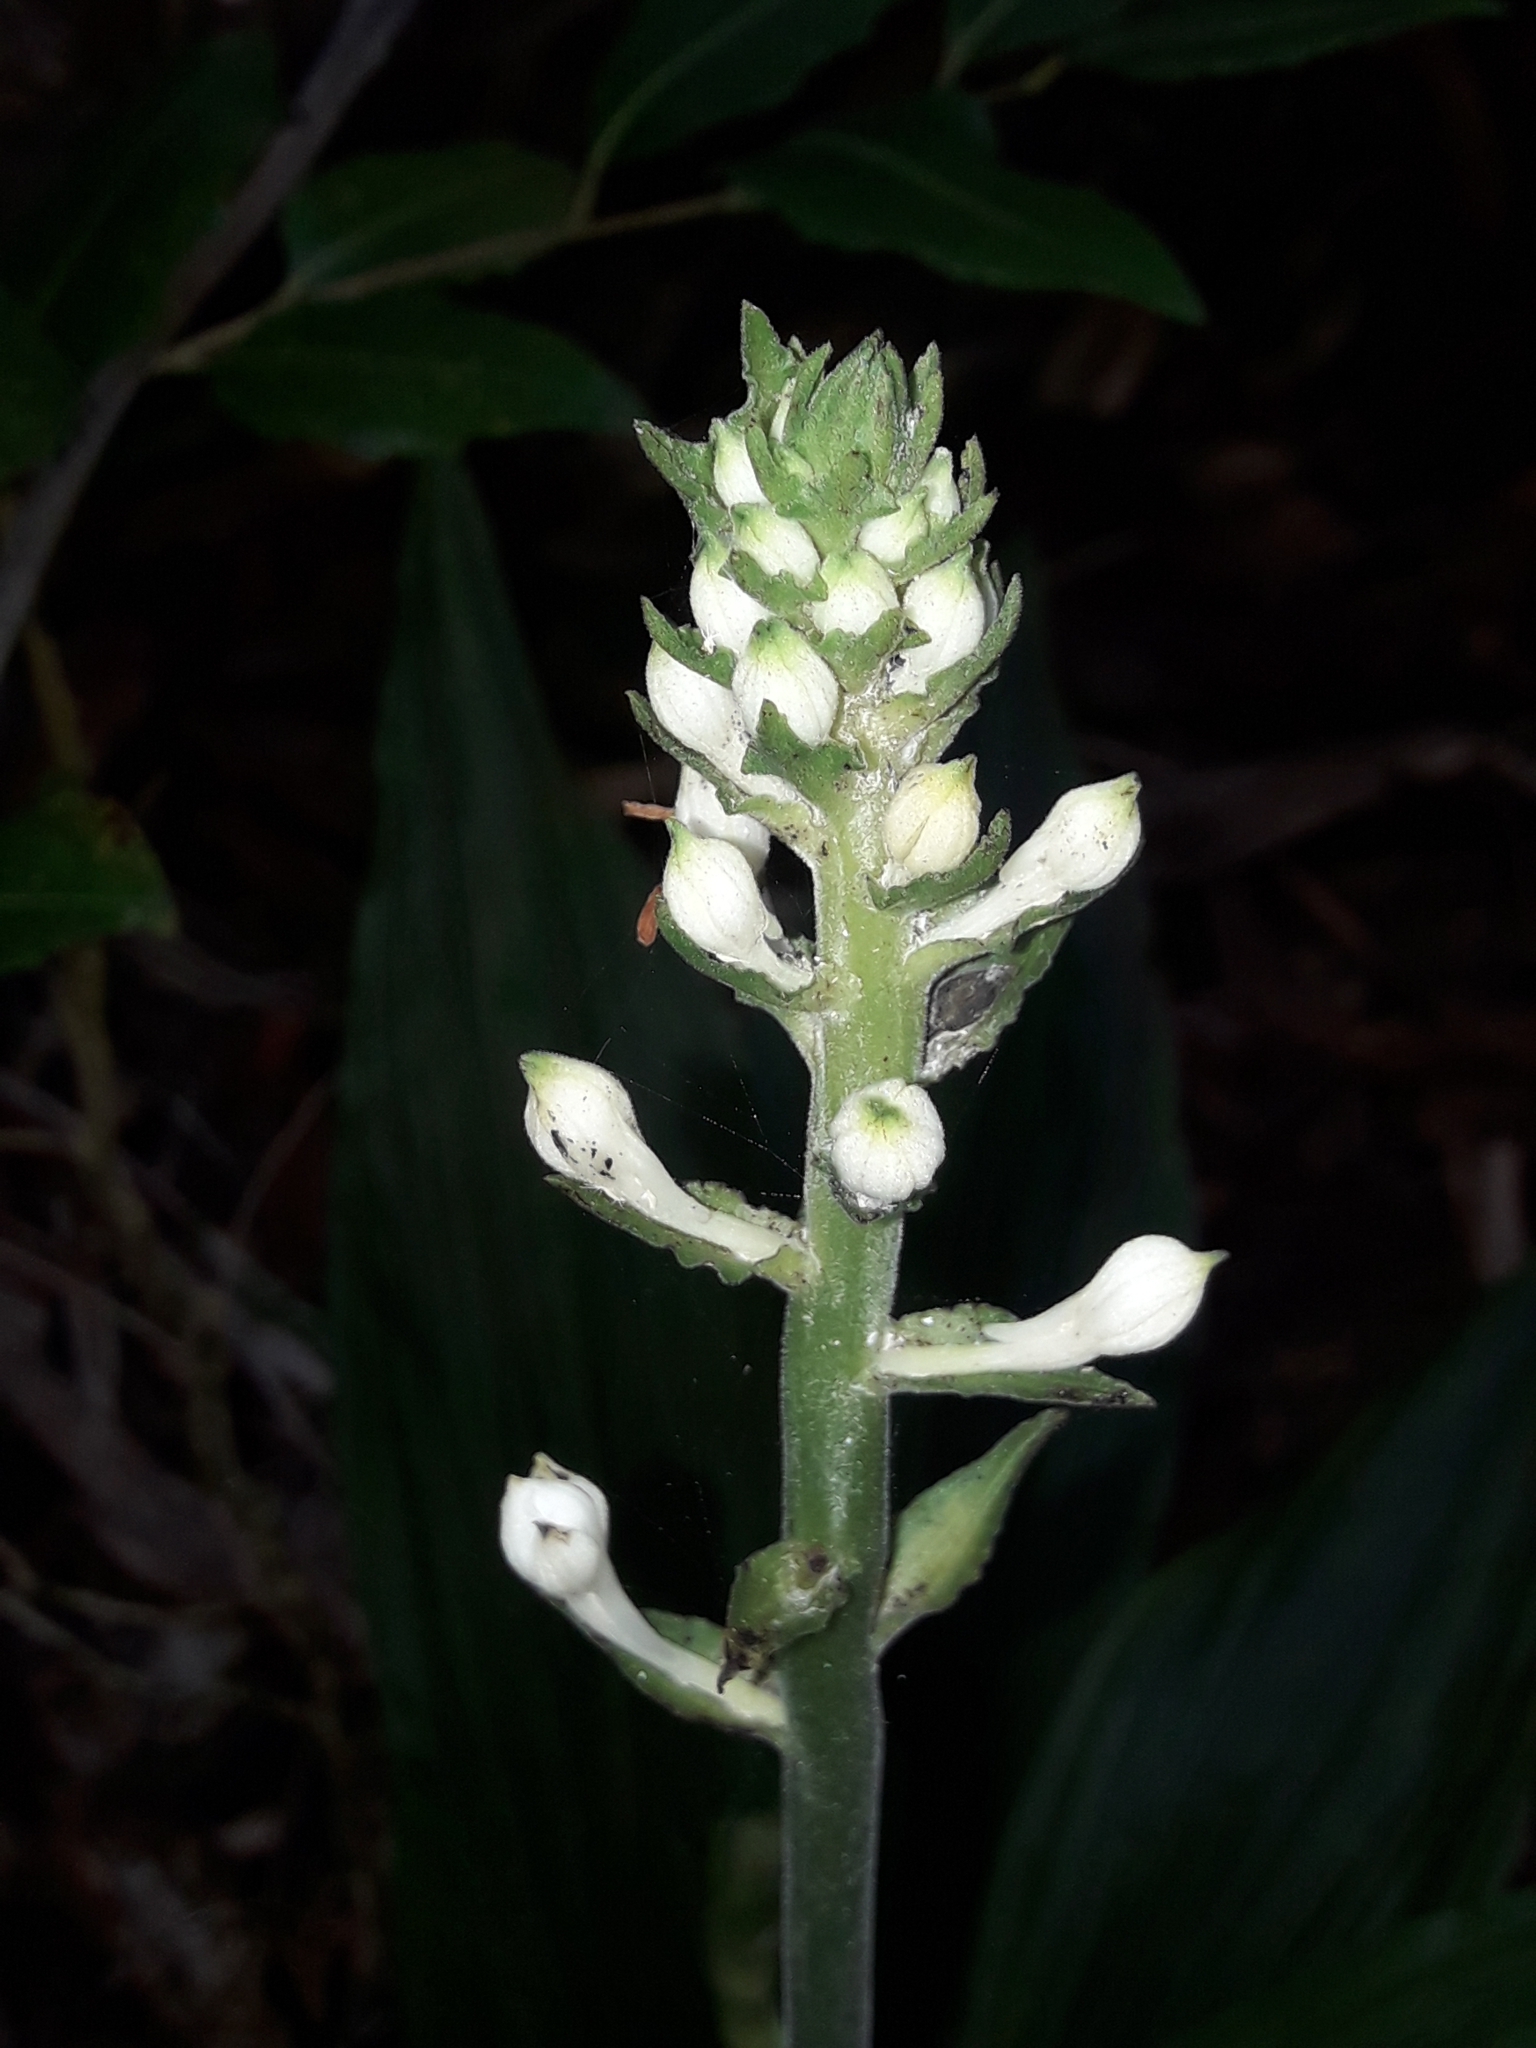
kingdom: Plantae
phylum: Tracheophyta
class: Liliopsida
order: Asparagales
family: Orchidaceae
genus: Calanthe
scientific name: Calanthe triplicata
